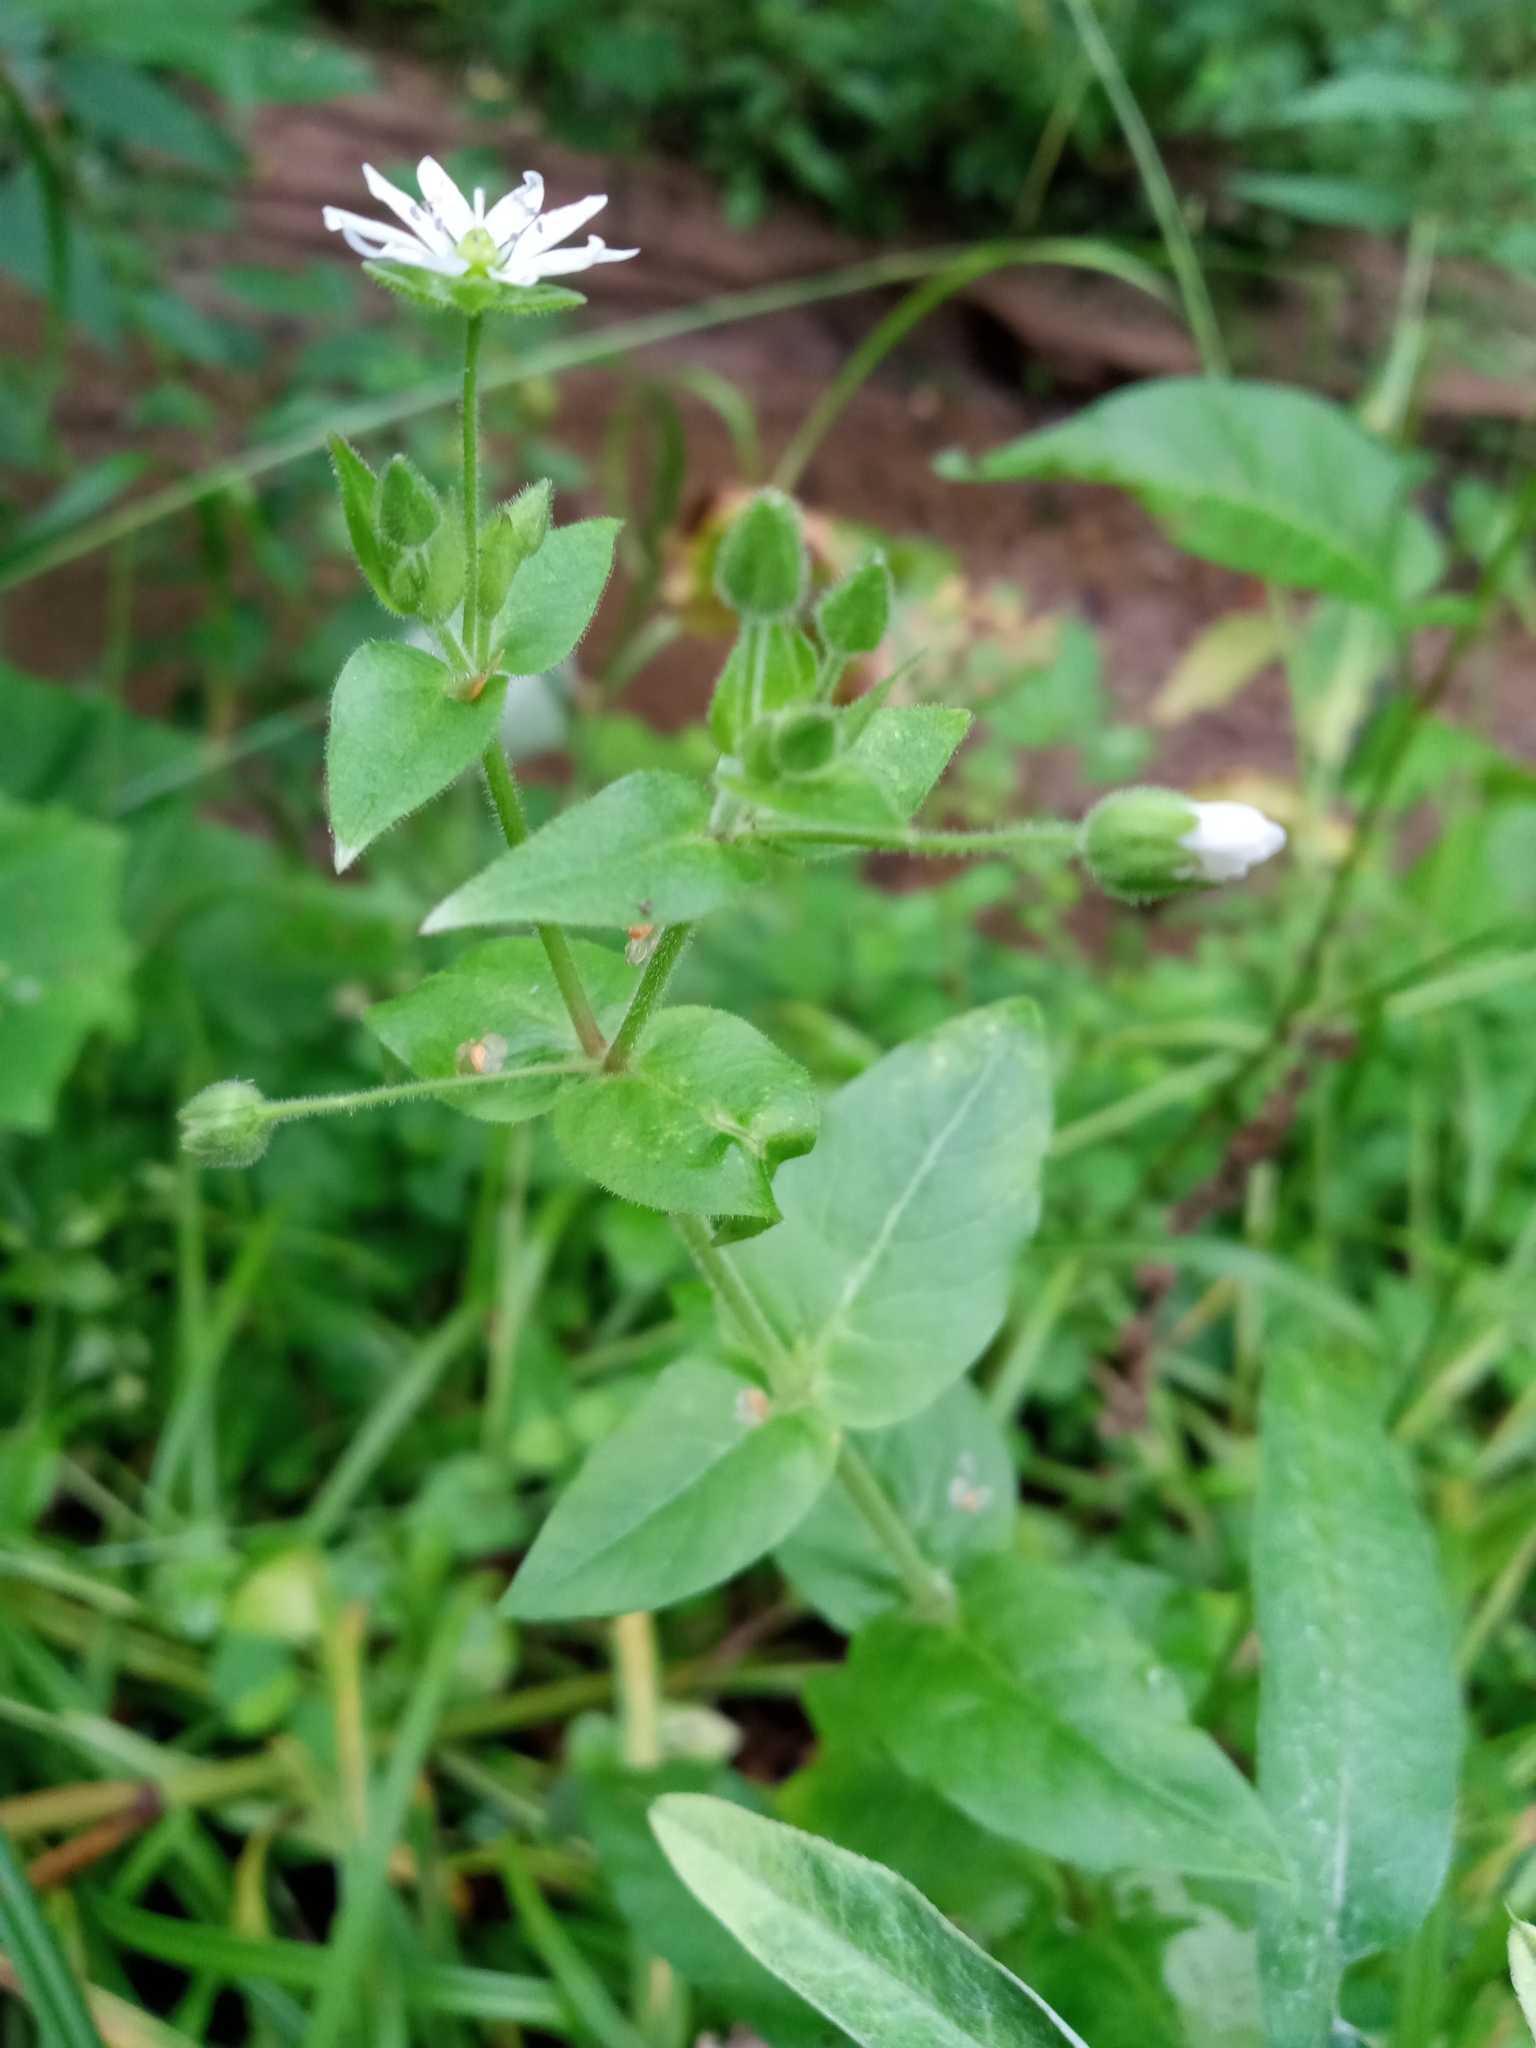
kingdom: Plantae
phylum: Tracheophyta
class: Magnoliopsida
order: Caryophyllales
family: Caryophyllaceae
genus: Stellaria
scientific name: Stellaria aquatica
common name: Water chickweed
